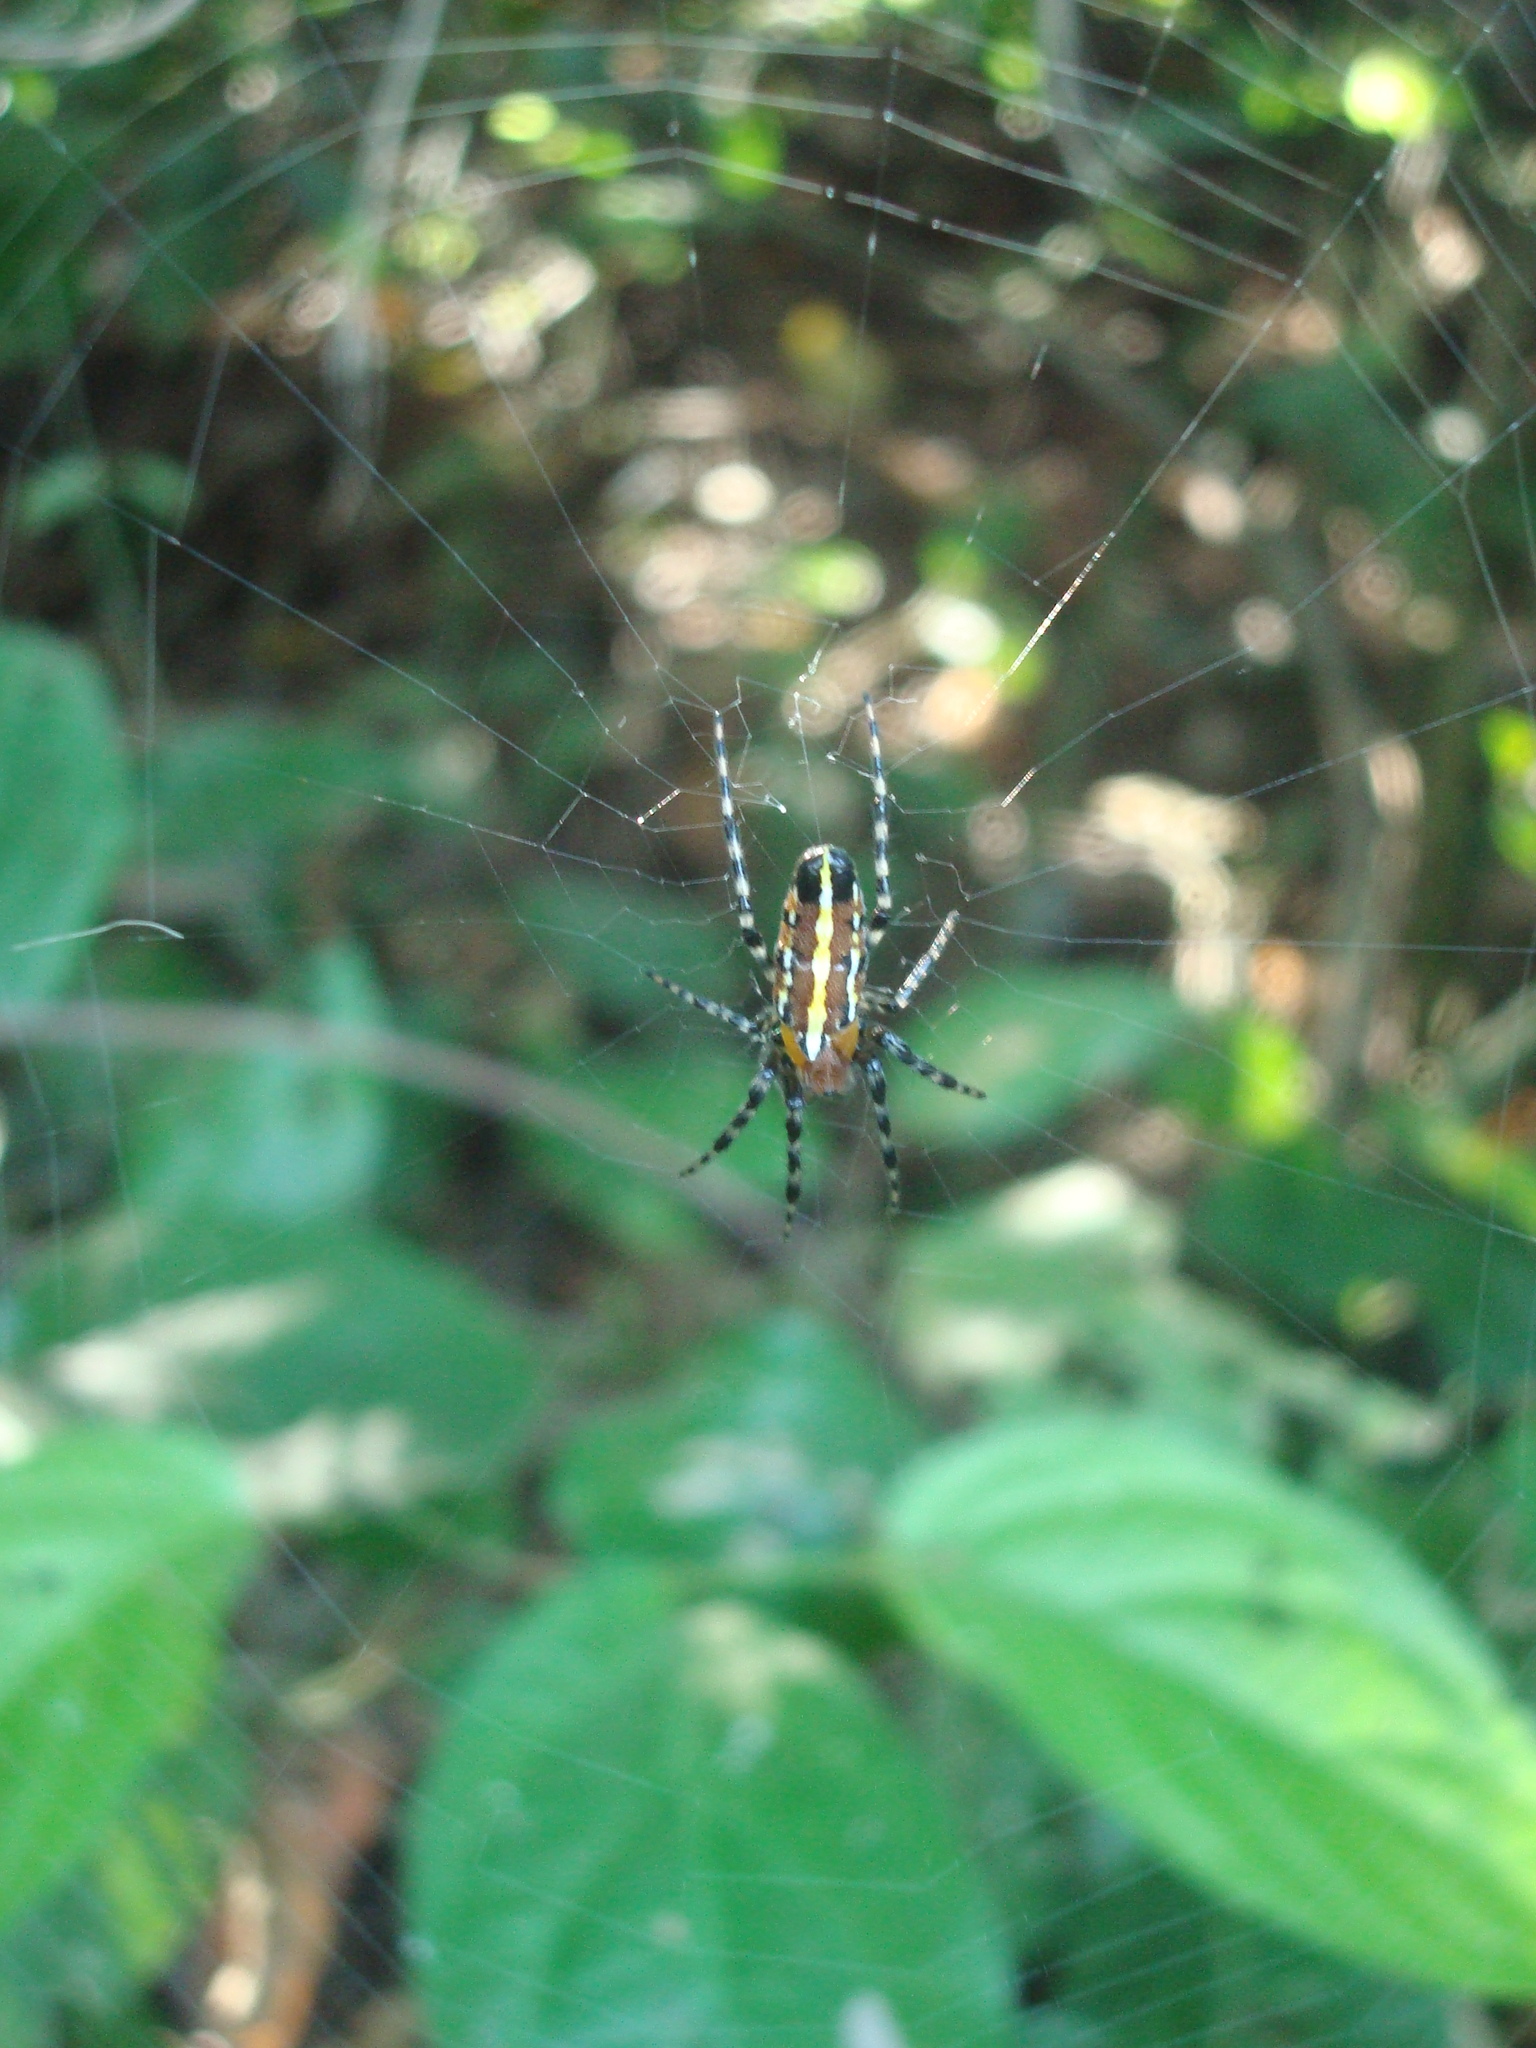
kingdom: Animalia
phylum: Arthropoda
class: Arachnida
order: Araneae
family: Araneidae
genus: Alpaida
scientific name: Alpaida grayi
